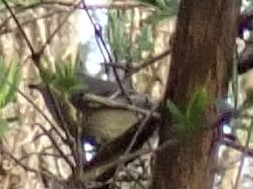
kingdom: Animalia
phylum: Chordata
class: Aves
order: Passeriformes
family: Regulidae
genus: Regulus
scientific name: Regulus calendula
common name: Ruby-crowned kinglet
